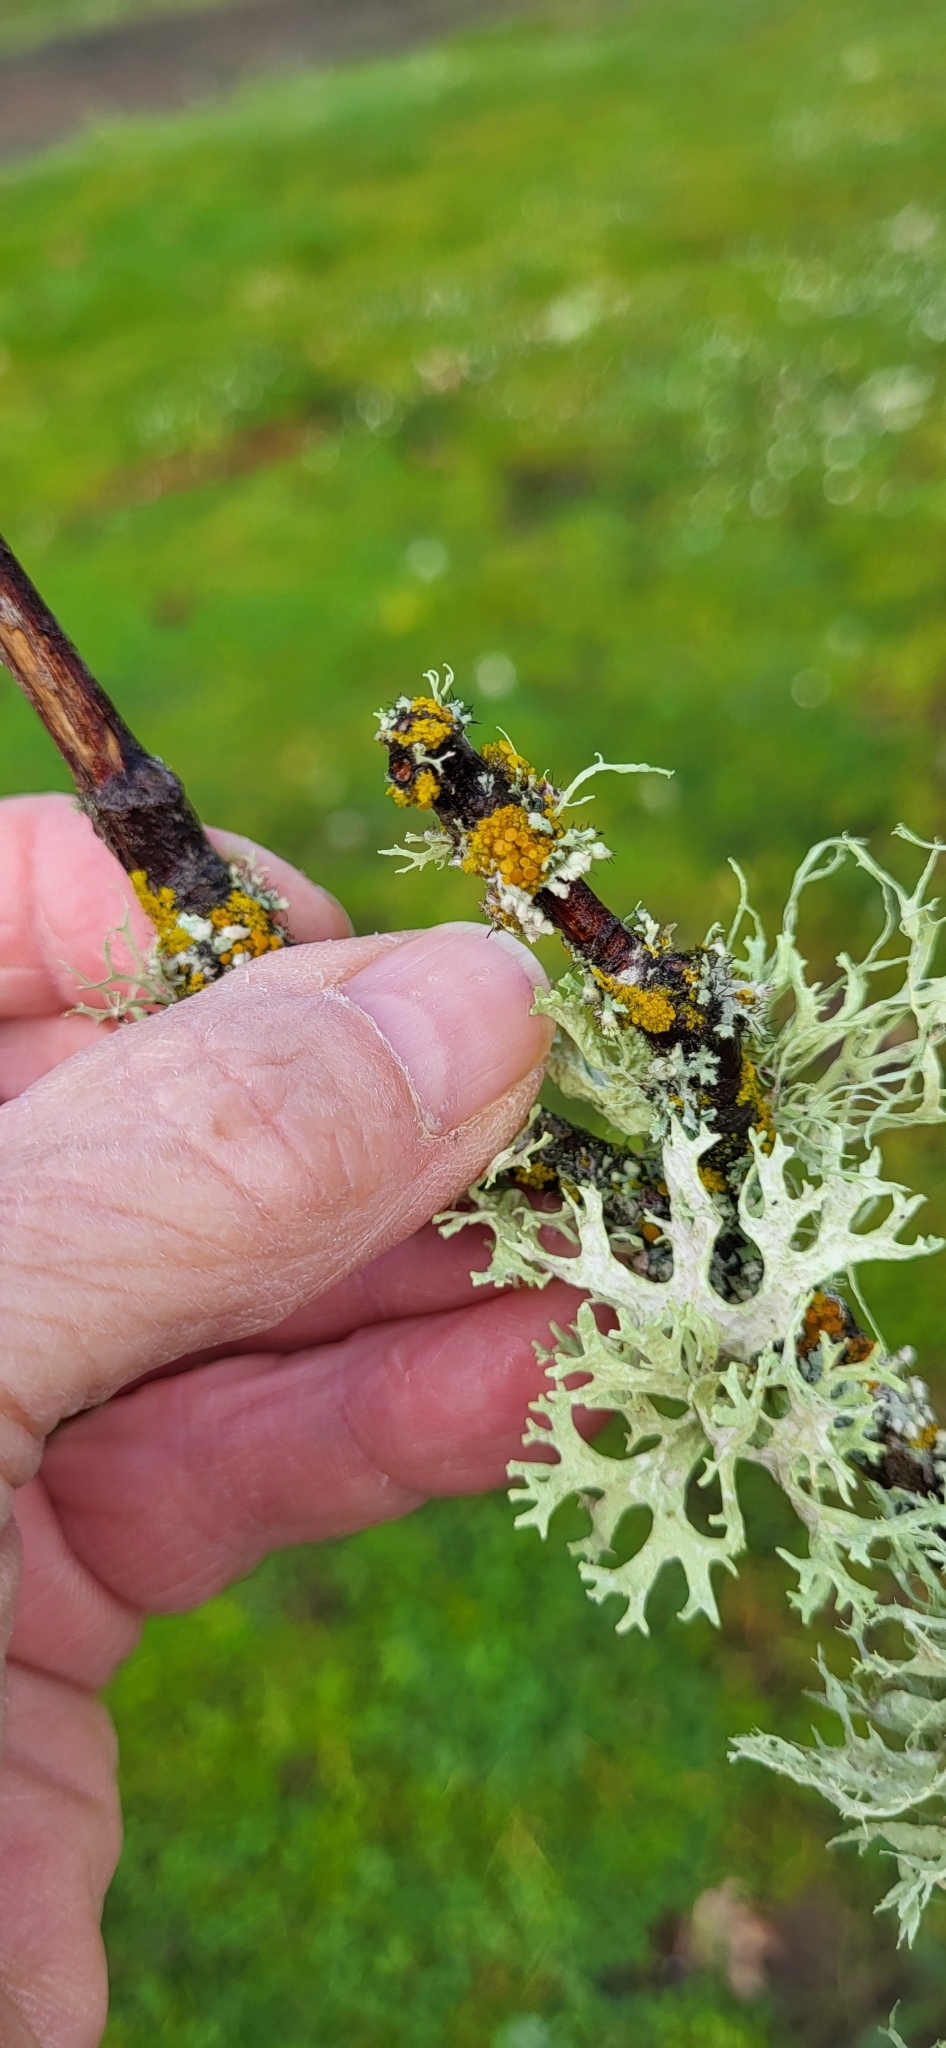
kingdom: Fungi
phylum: Ascomycota
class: Lecanoromycetes
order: Lecanorales
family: Parmeliaceae
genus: Evernia
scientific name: Evernia prunastri
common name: Oak moss
